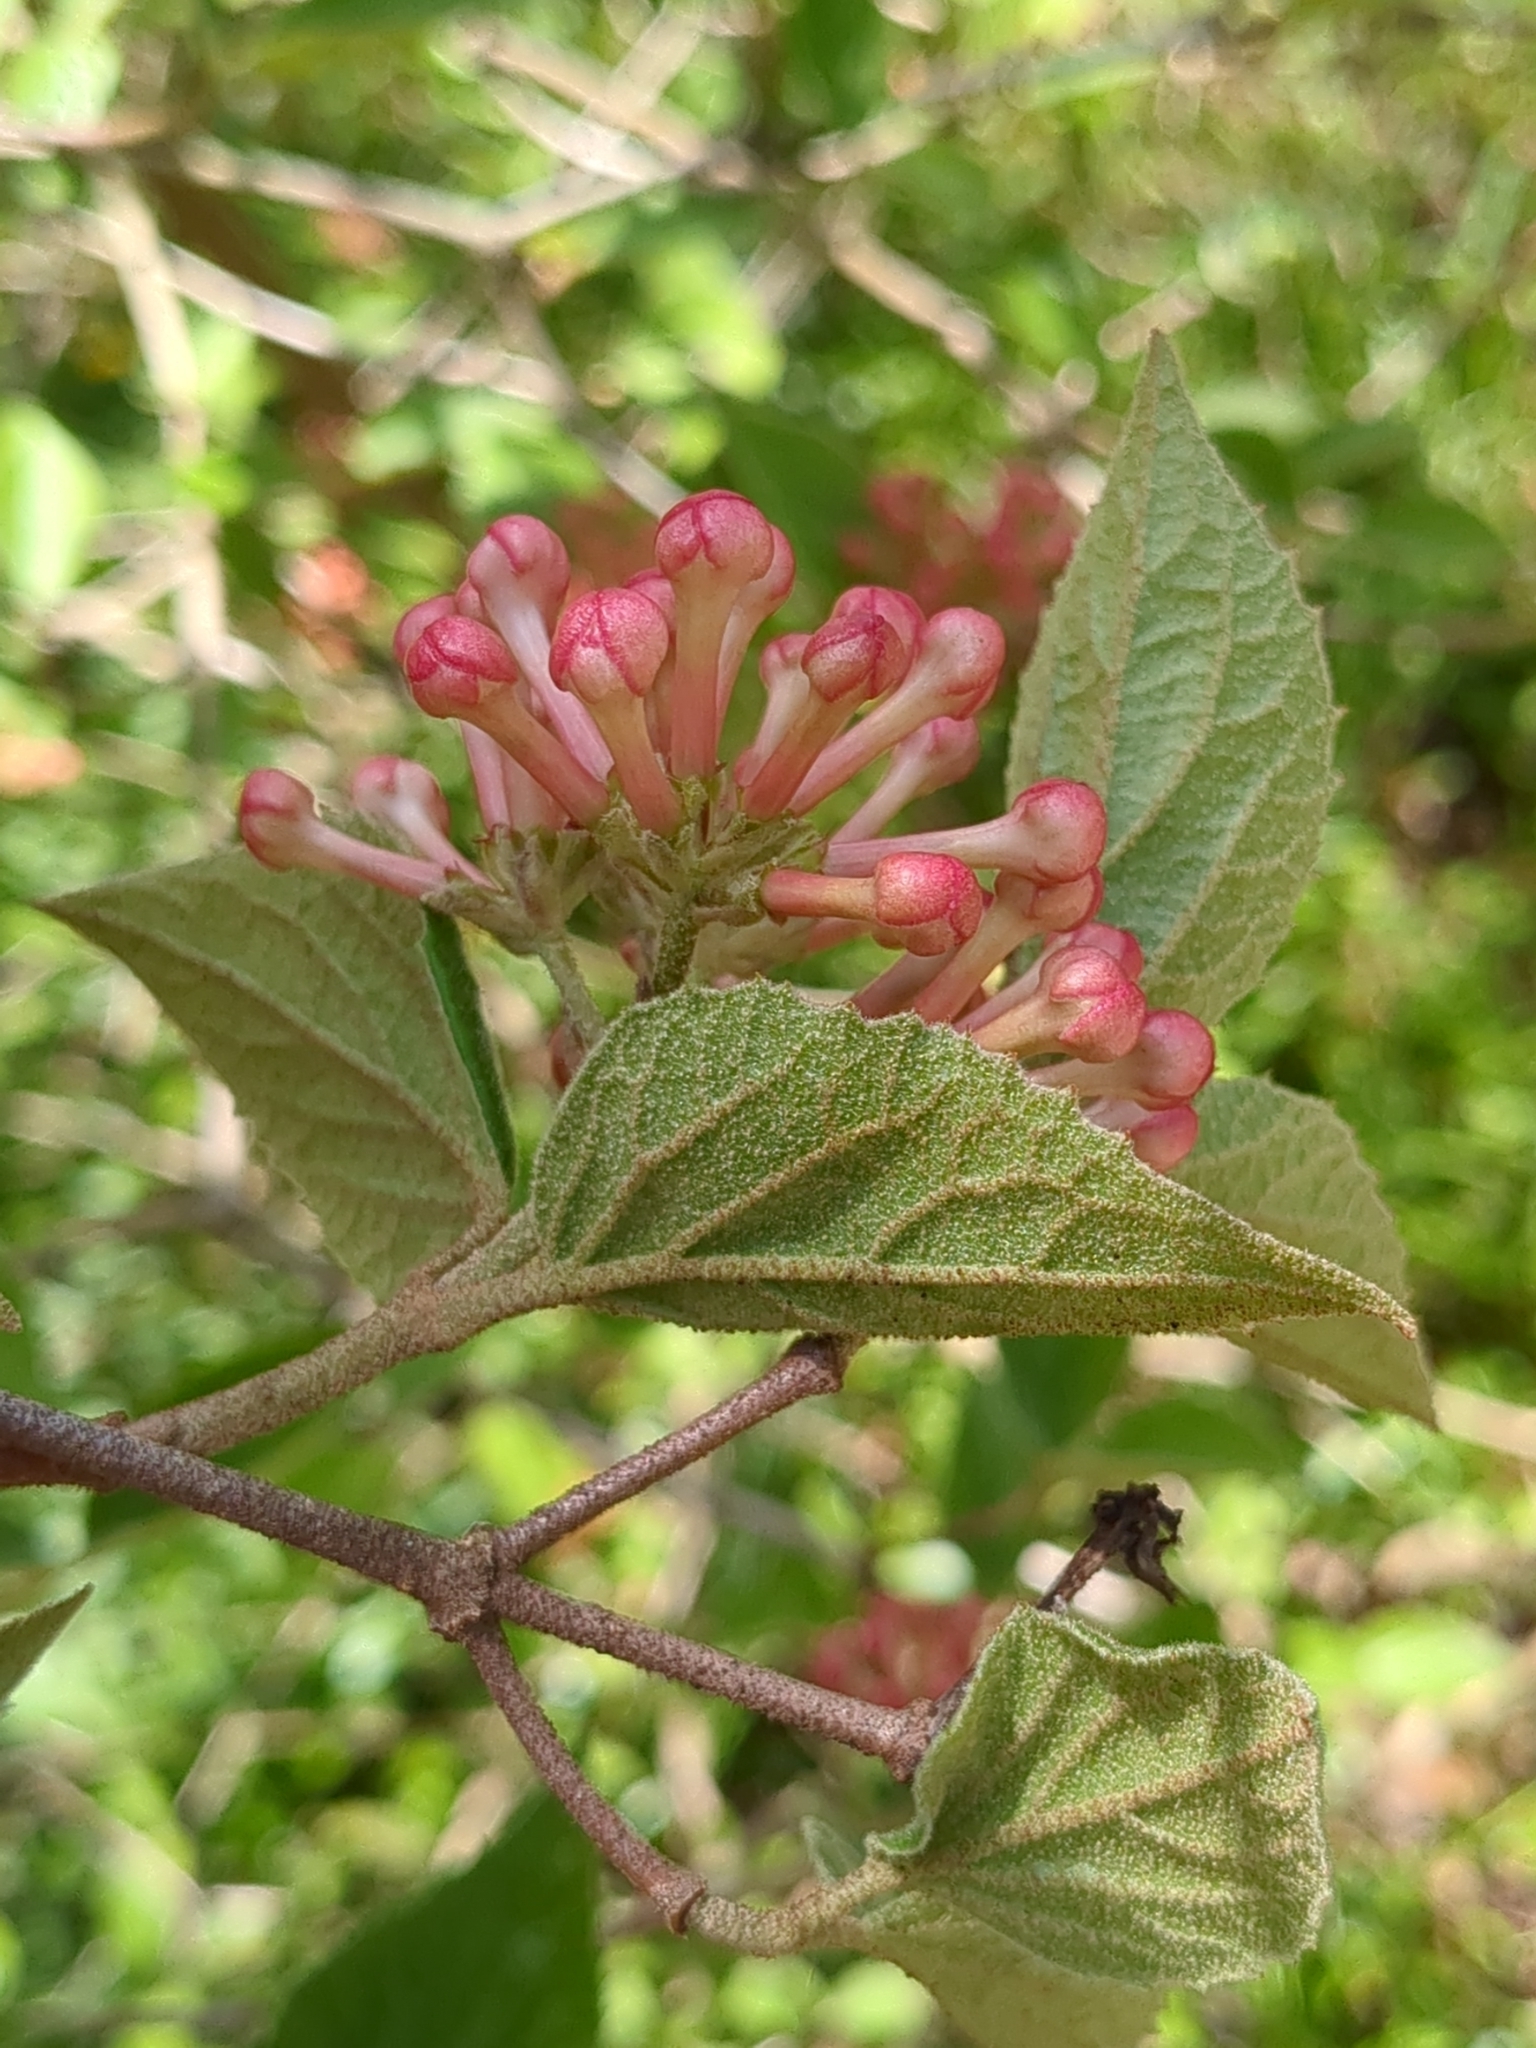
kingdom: Plantae
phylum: Tracheophyta
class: Magnoliopsida
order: Dipsacales
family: Viburnaceae
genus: Viburnum
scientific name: Viburnum carlesii
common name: Koreanspice viburnum
